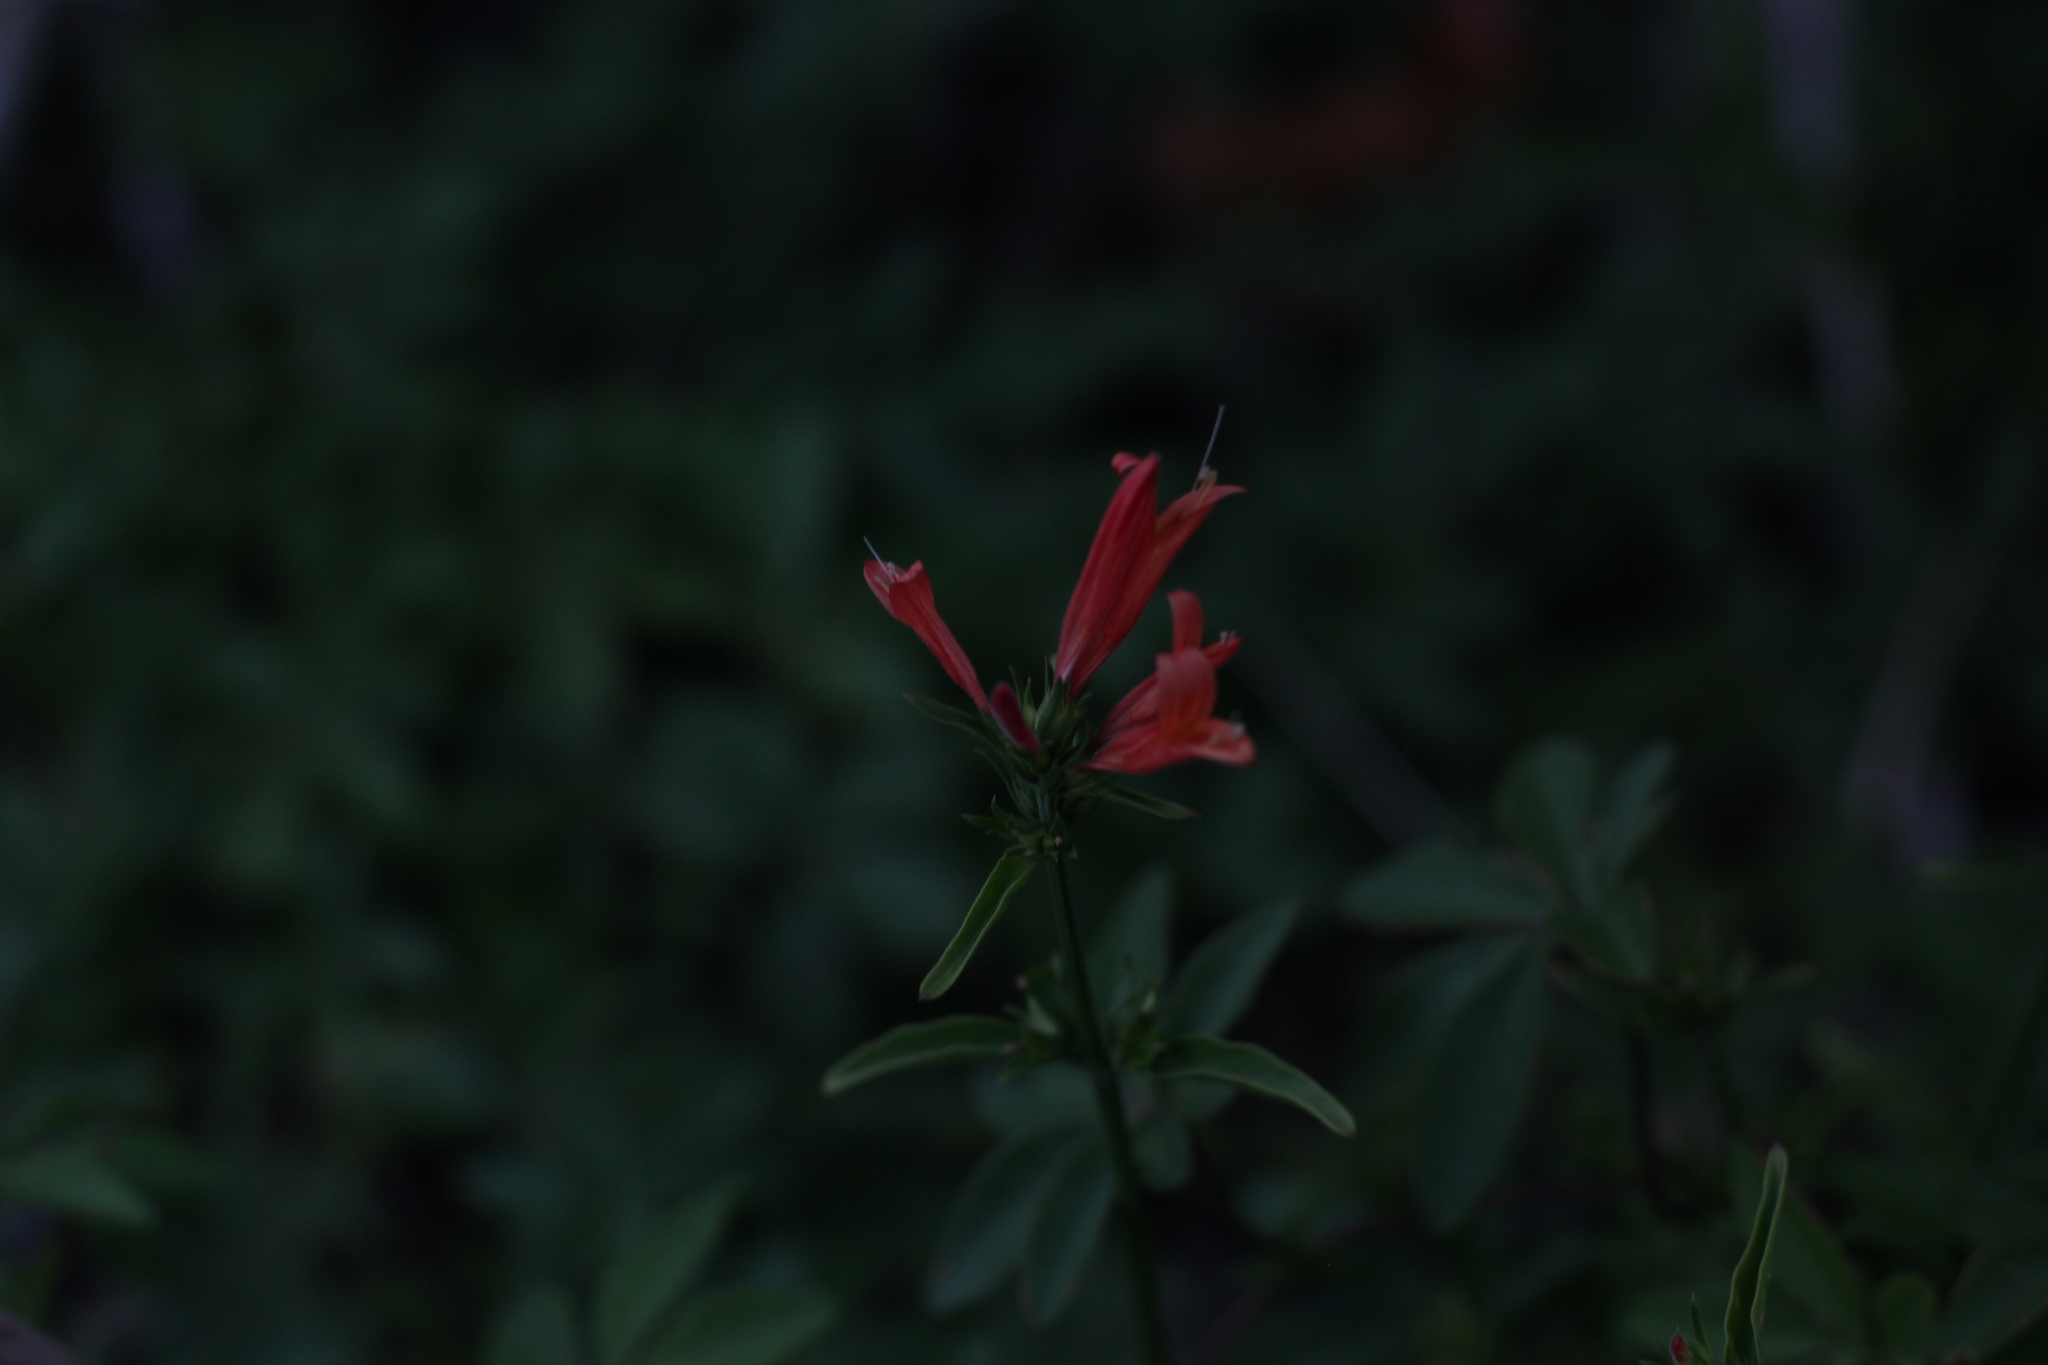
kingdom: Plantae
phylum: Tracheophyta
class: Magnoliopsida
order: Lamiales
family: Acanthaceae
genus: Dicliptera
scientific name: Dicliptera squarrosa
